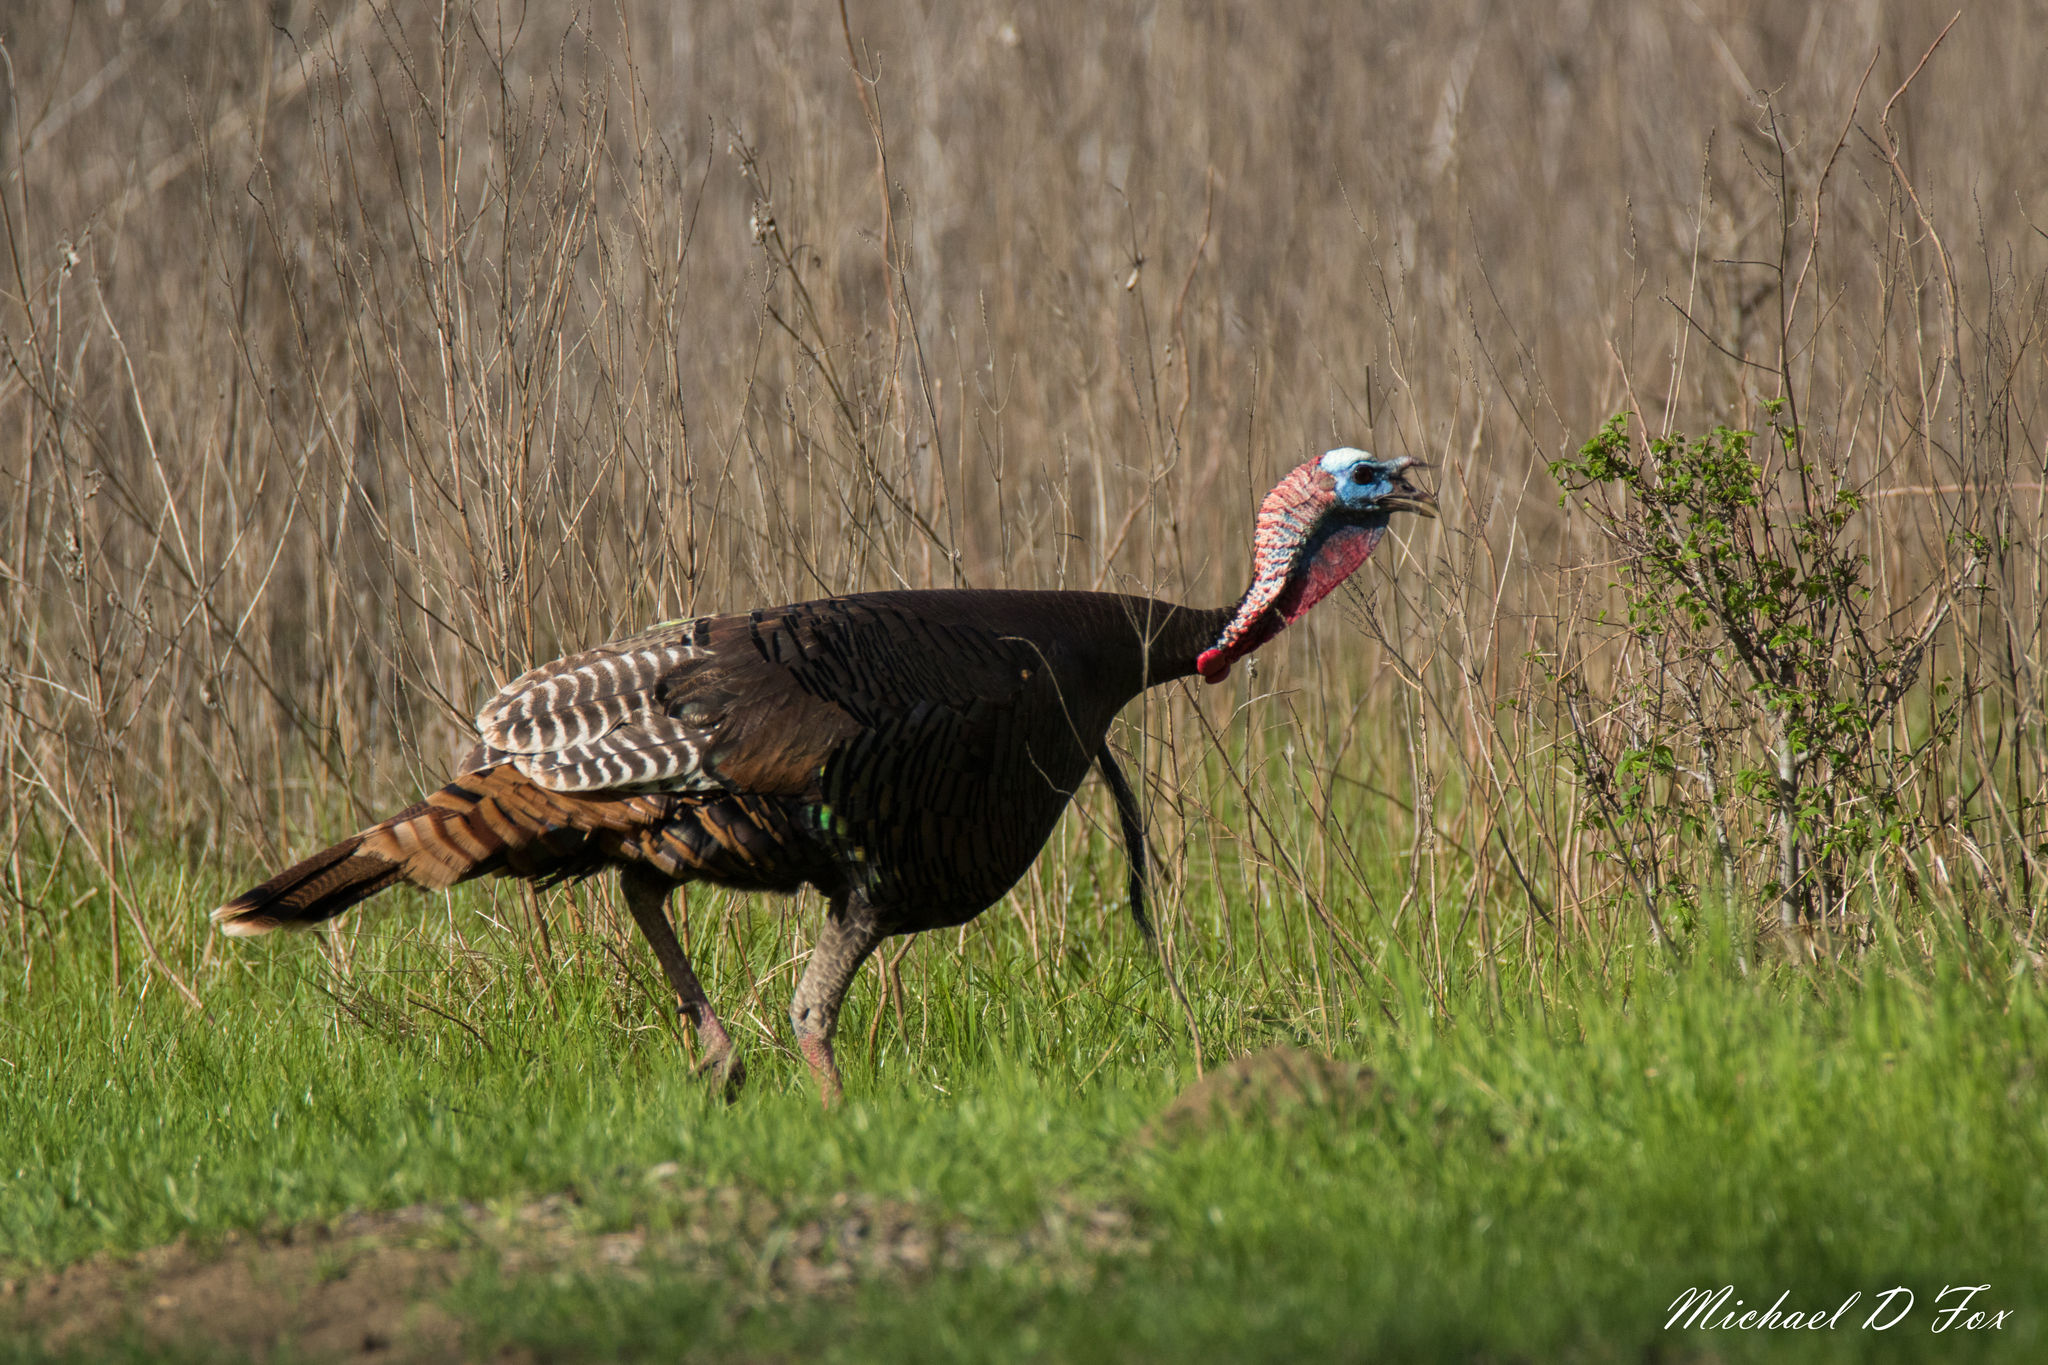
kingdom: Animalia
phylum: Chordata
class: Aves
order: Galliformes
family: Phasianidae
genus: Meleagris
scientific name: Meleagris gallopavo
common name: Wild turkey
